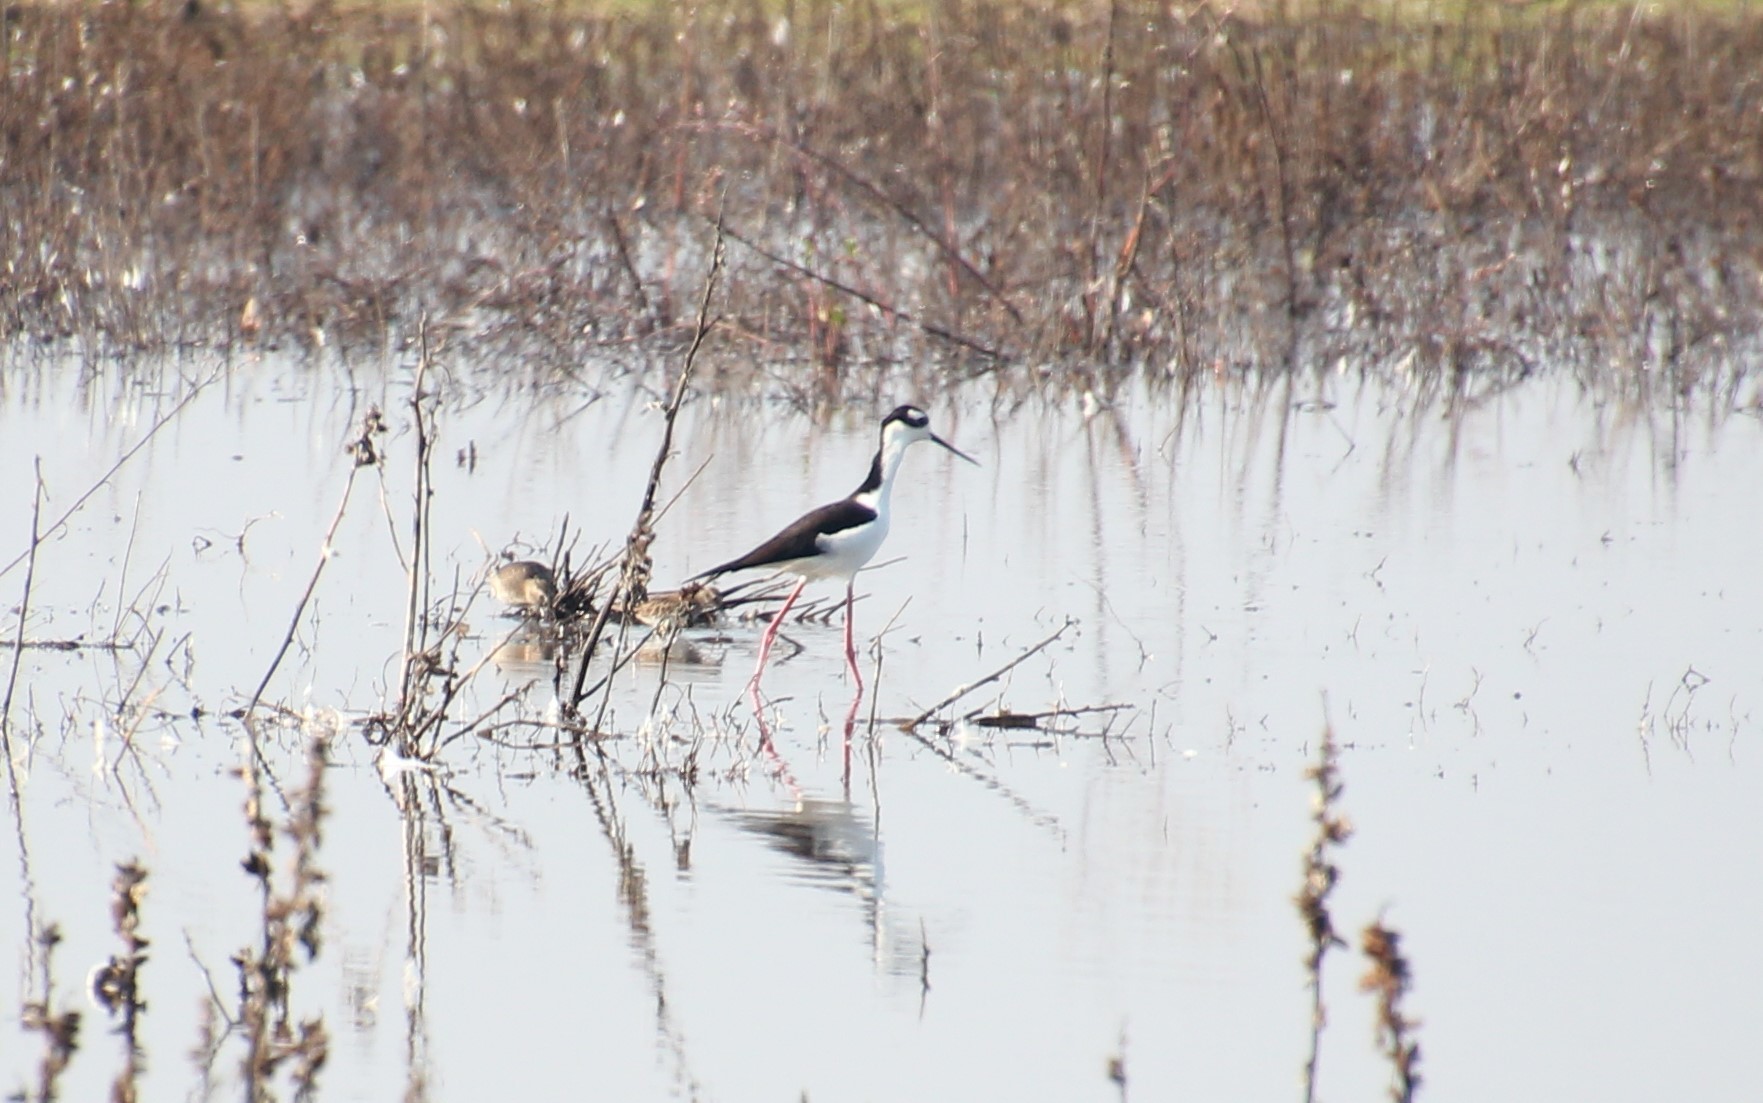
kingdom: Animalia
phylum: Chordata
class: Aves
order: Charadriiformes
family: Recurvirostridae
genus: Himantopus
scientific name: Himantopus mexicanus
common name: Black-necked stilt
